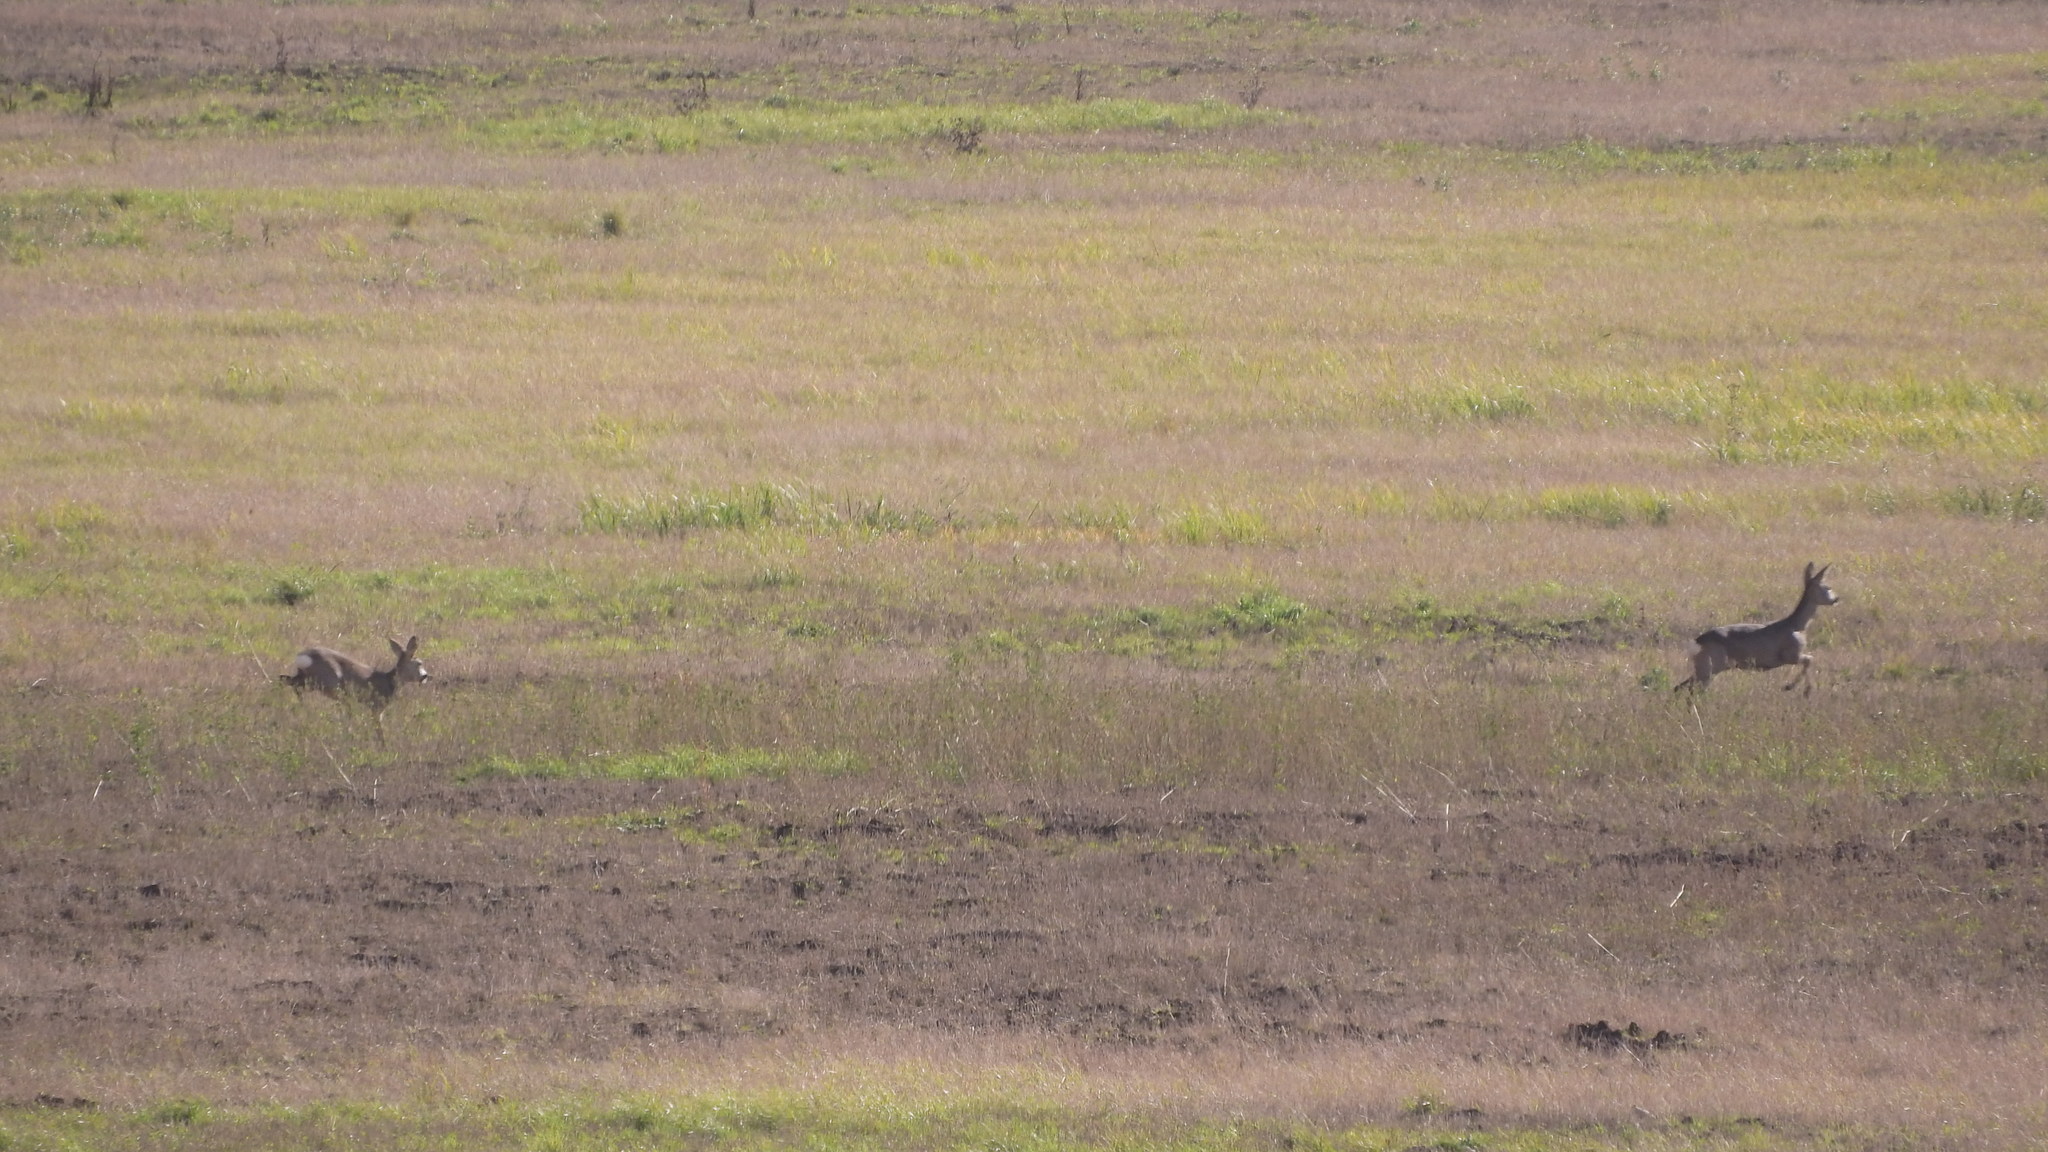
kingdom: Animalia
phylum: Chordata
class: Mammalia
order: Artiodactyla
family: Cervidae
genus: Capreolus
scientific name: Capreolus capreolus
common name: Western roe deer
